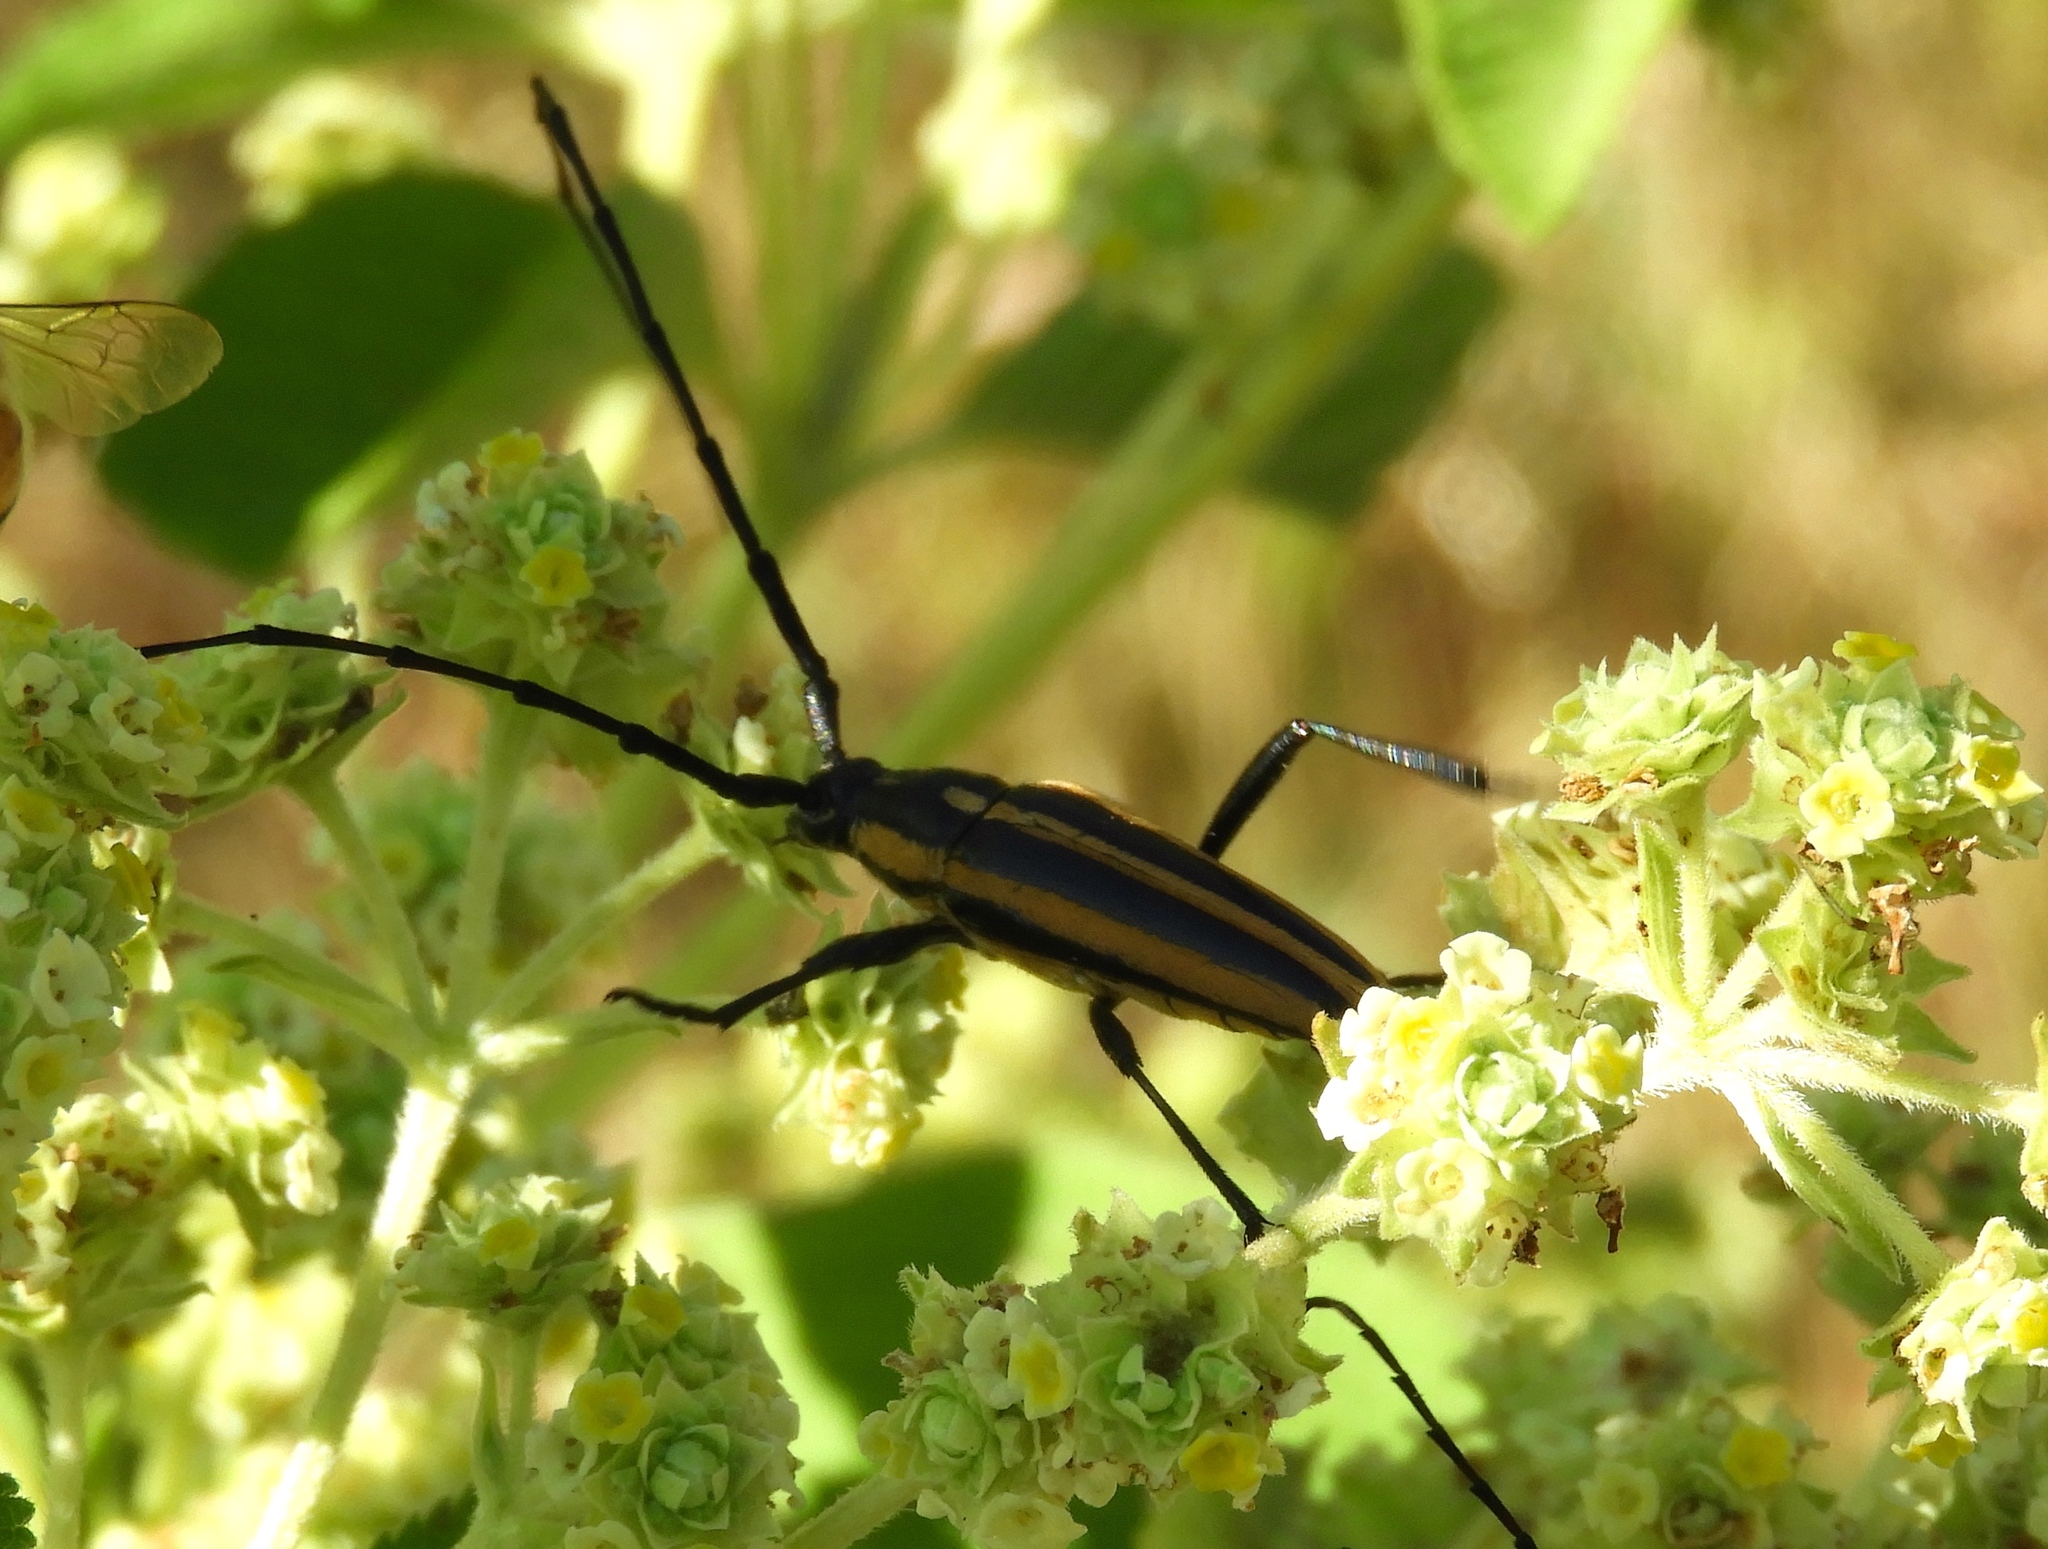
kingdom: Animalia
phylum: Arthropoda
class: Insecta
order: Coleoptera
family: Cerambycidae
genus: Sphaenothecus
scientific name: Sphaenothecus trilineatus
